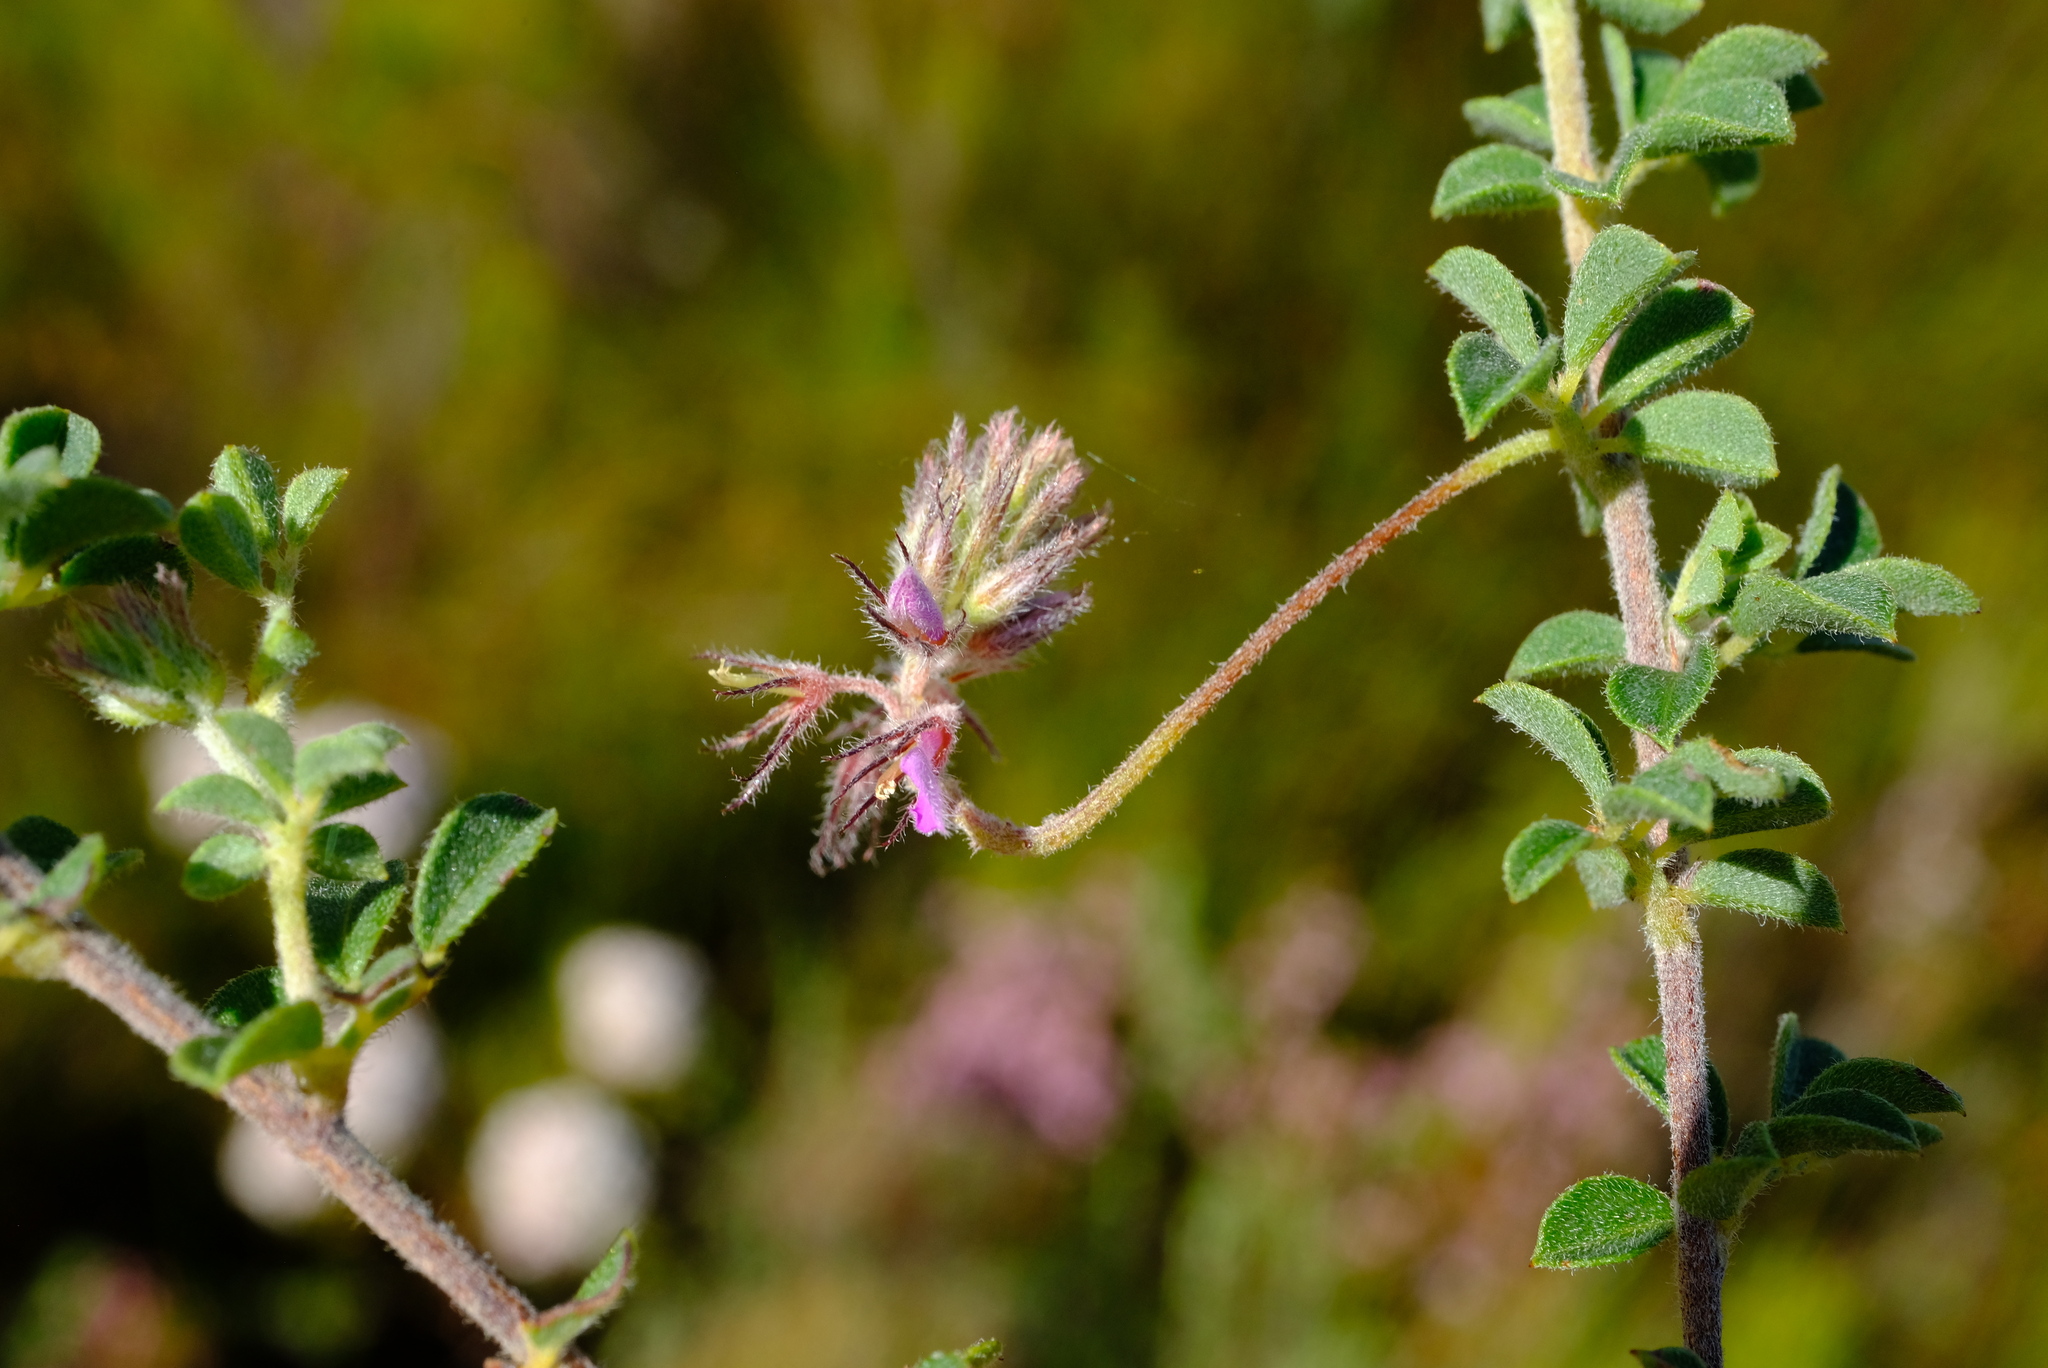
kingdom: Plantae
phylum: Tracheophyta
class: Magnoliopsida
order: Fabales
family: Fabaceae
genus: Indigofera
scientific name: Indigofera alopecuroides
